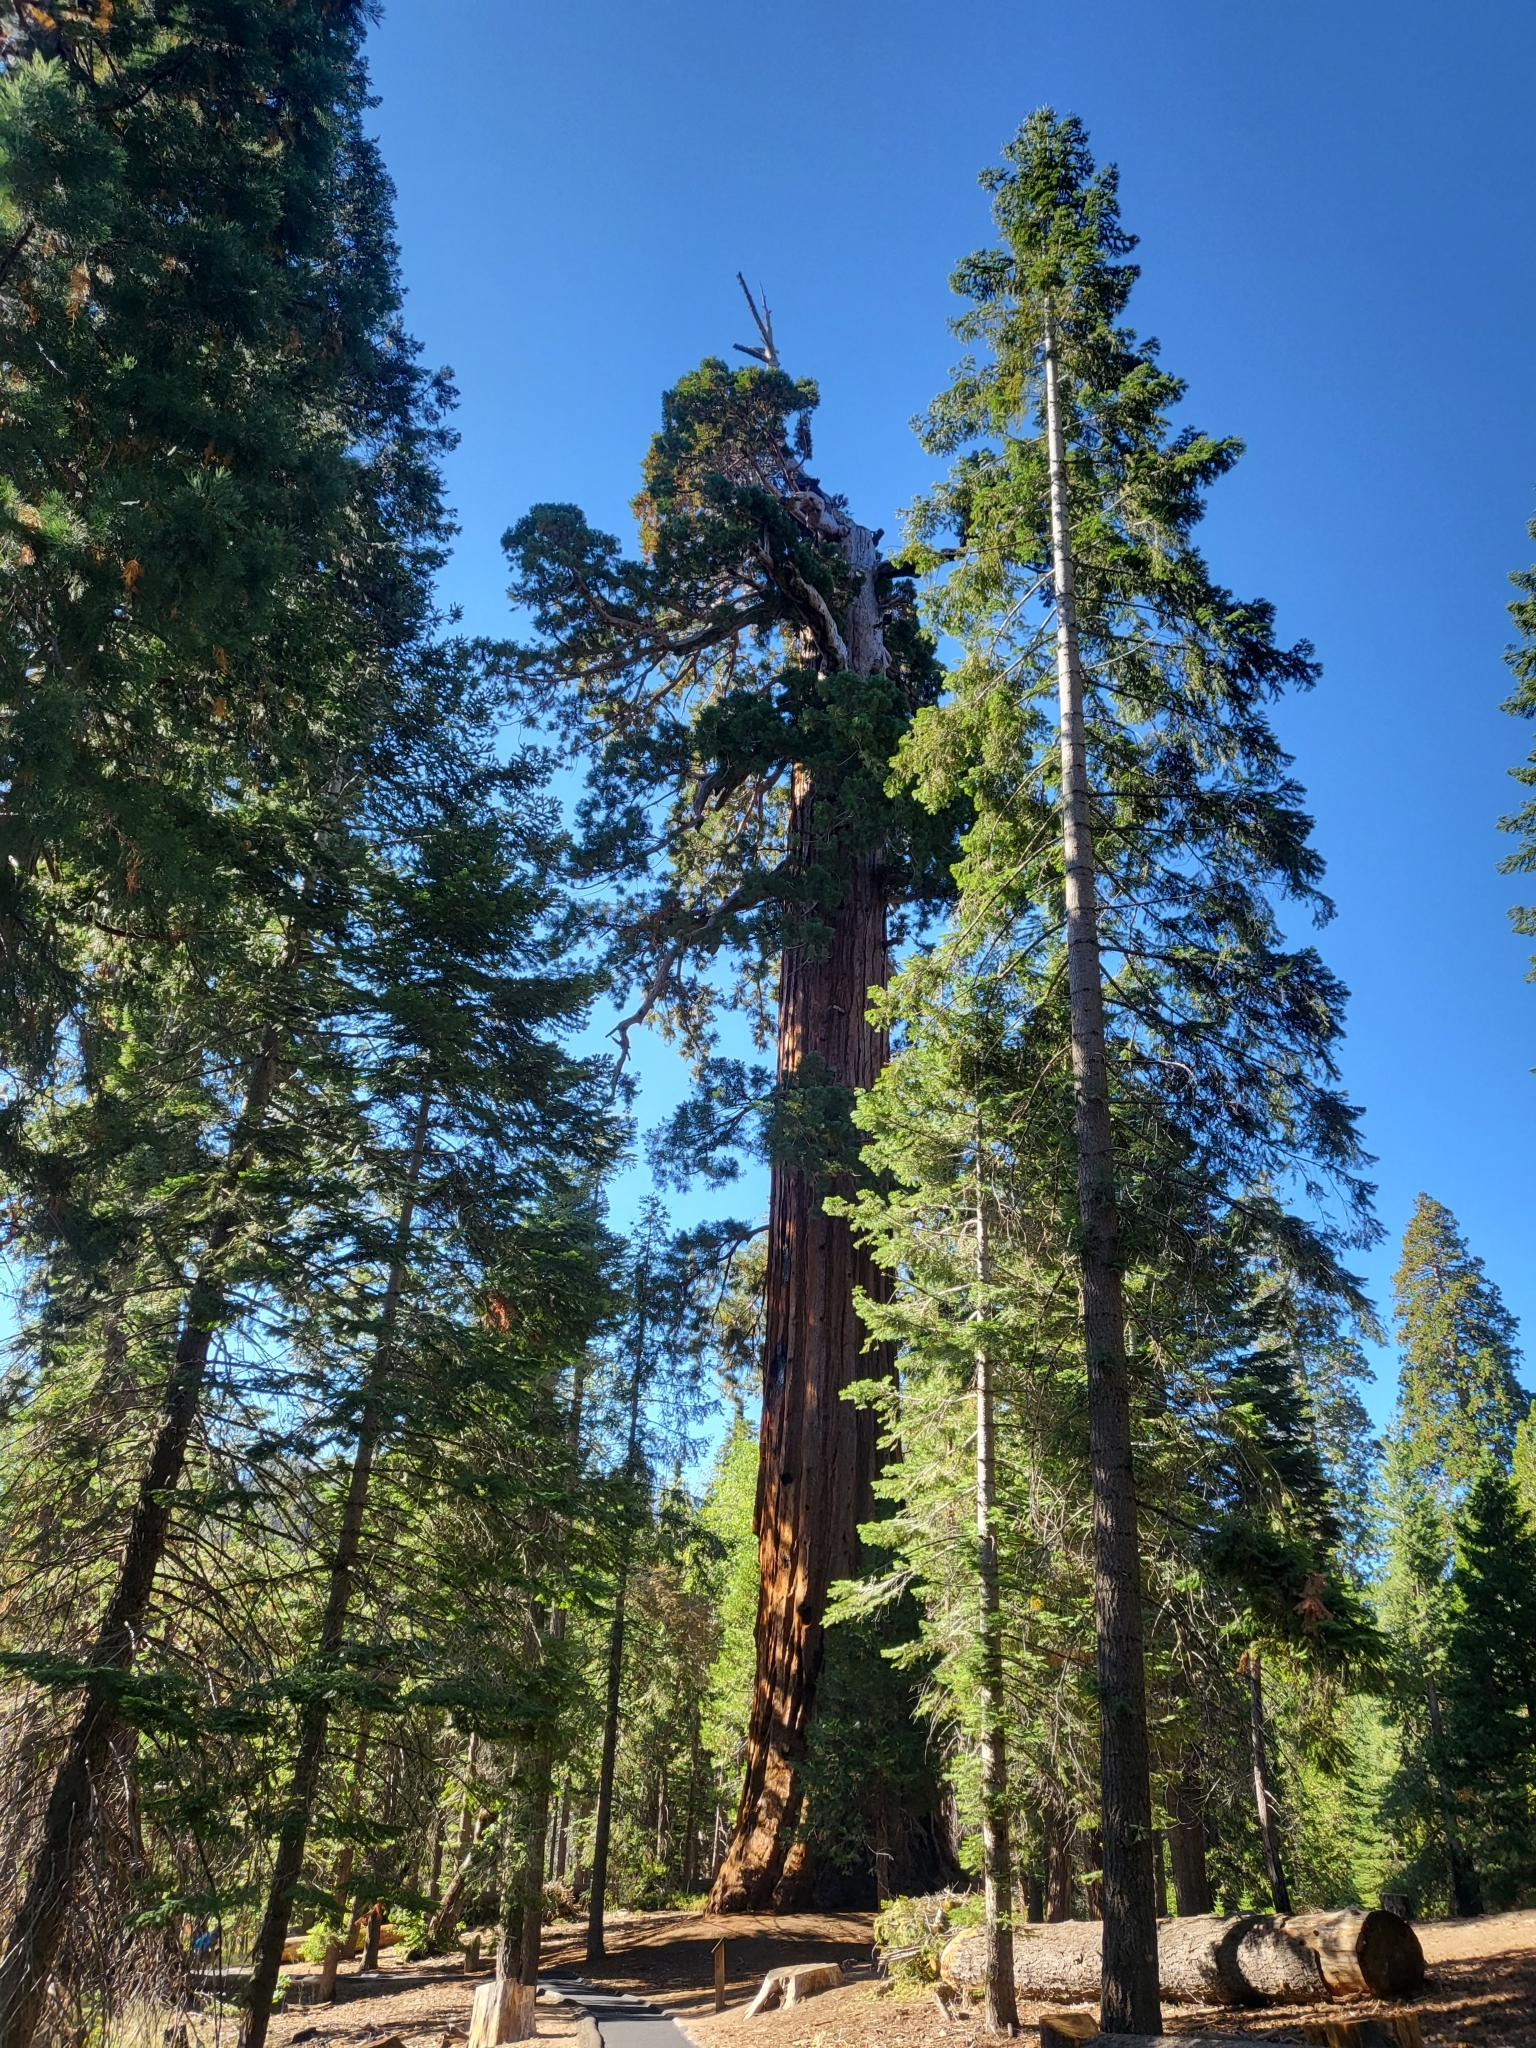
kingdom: Plantae
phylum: Tracheophyta
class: Pinopsida
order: Pinales
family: Cupressaceae
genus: Sequoiadendron
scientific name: Sequoiadendron giganteum
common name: Wellingtonia
